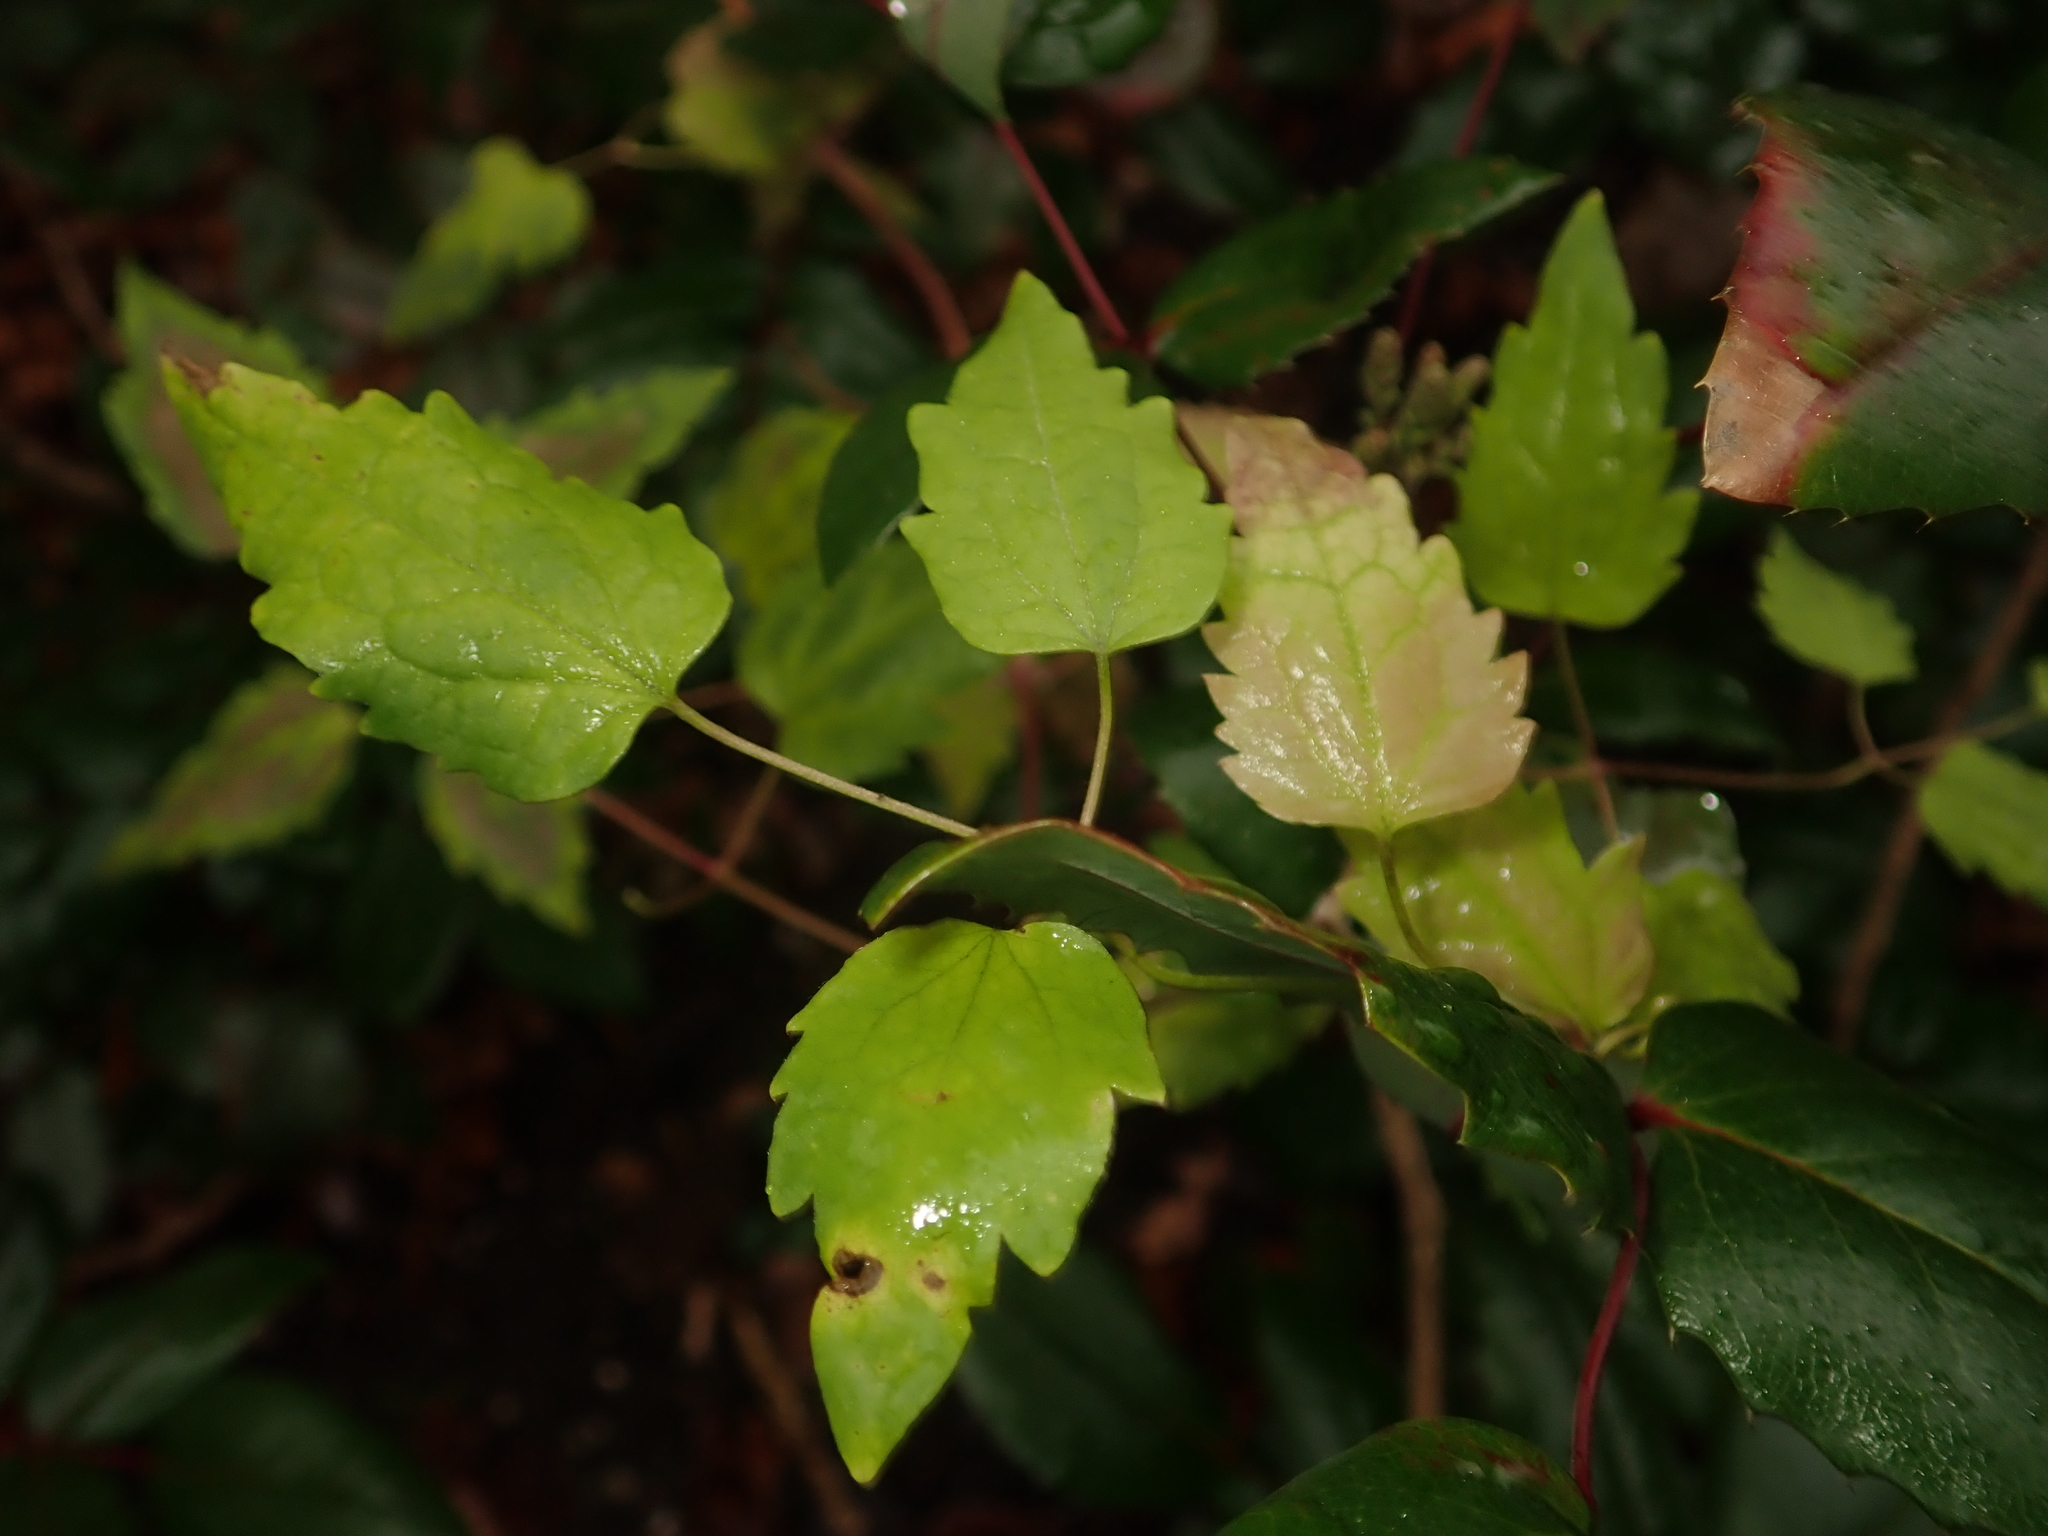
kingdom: Plantae
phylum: Tracheophyta
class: Magnoliopsida
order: Ranunculales
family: Ranunculaceae
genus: Clematis
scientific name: Clematis vitalba
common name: Evergreen clematis
